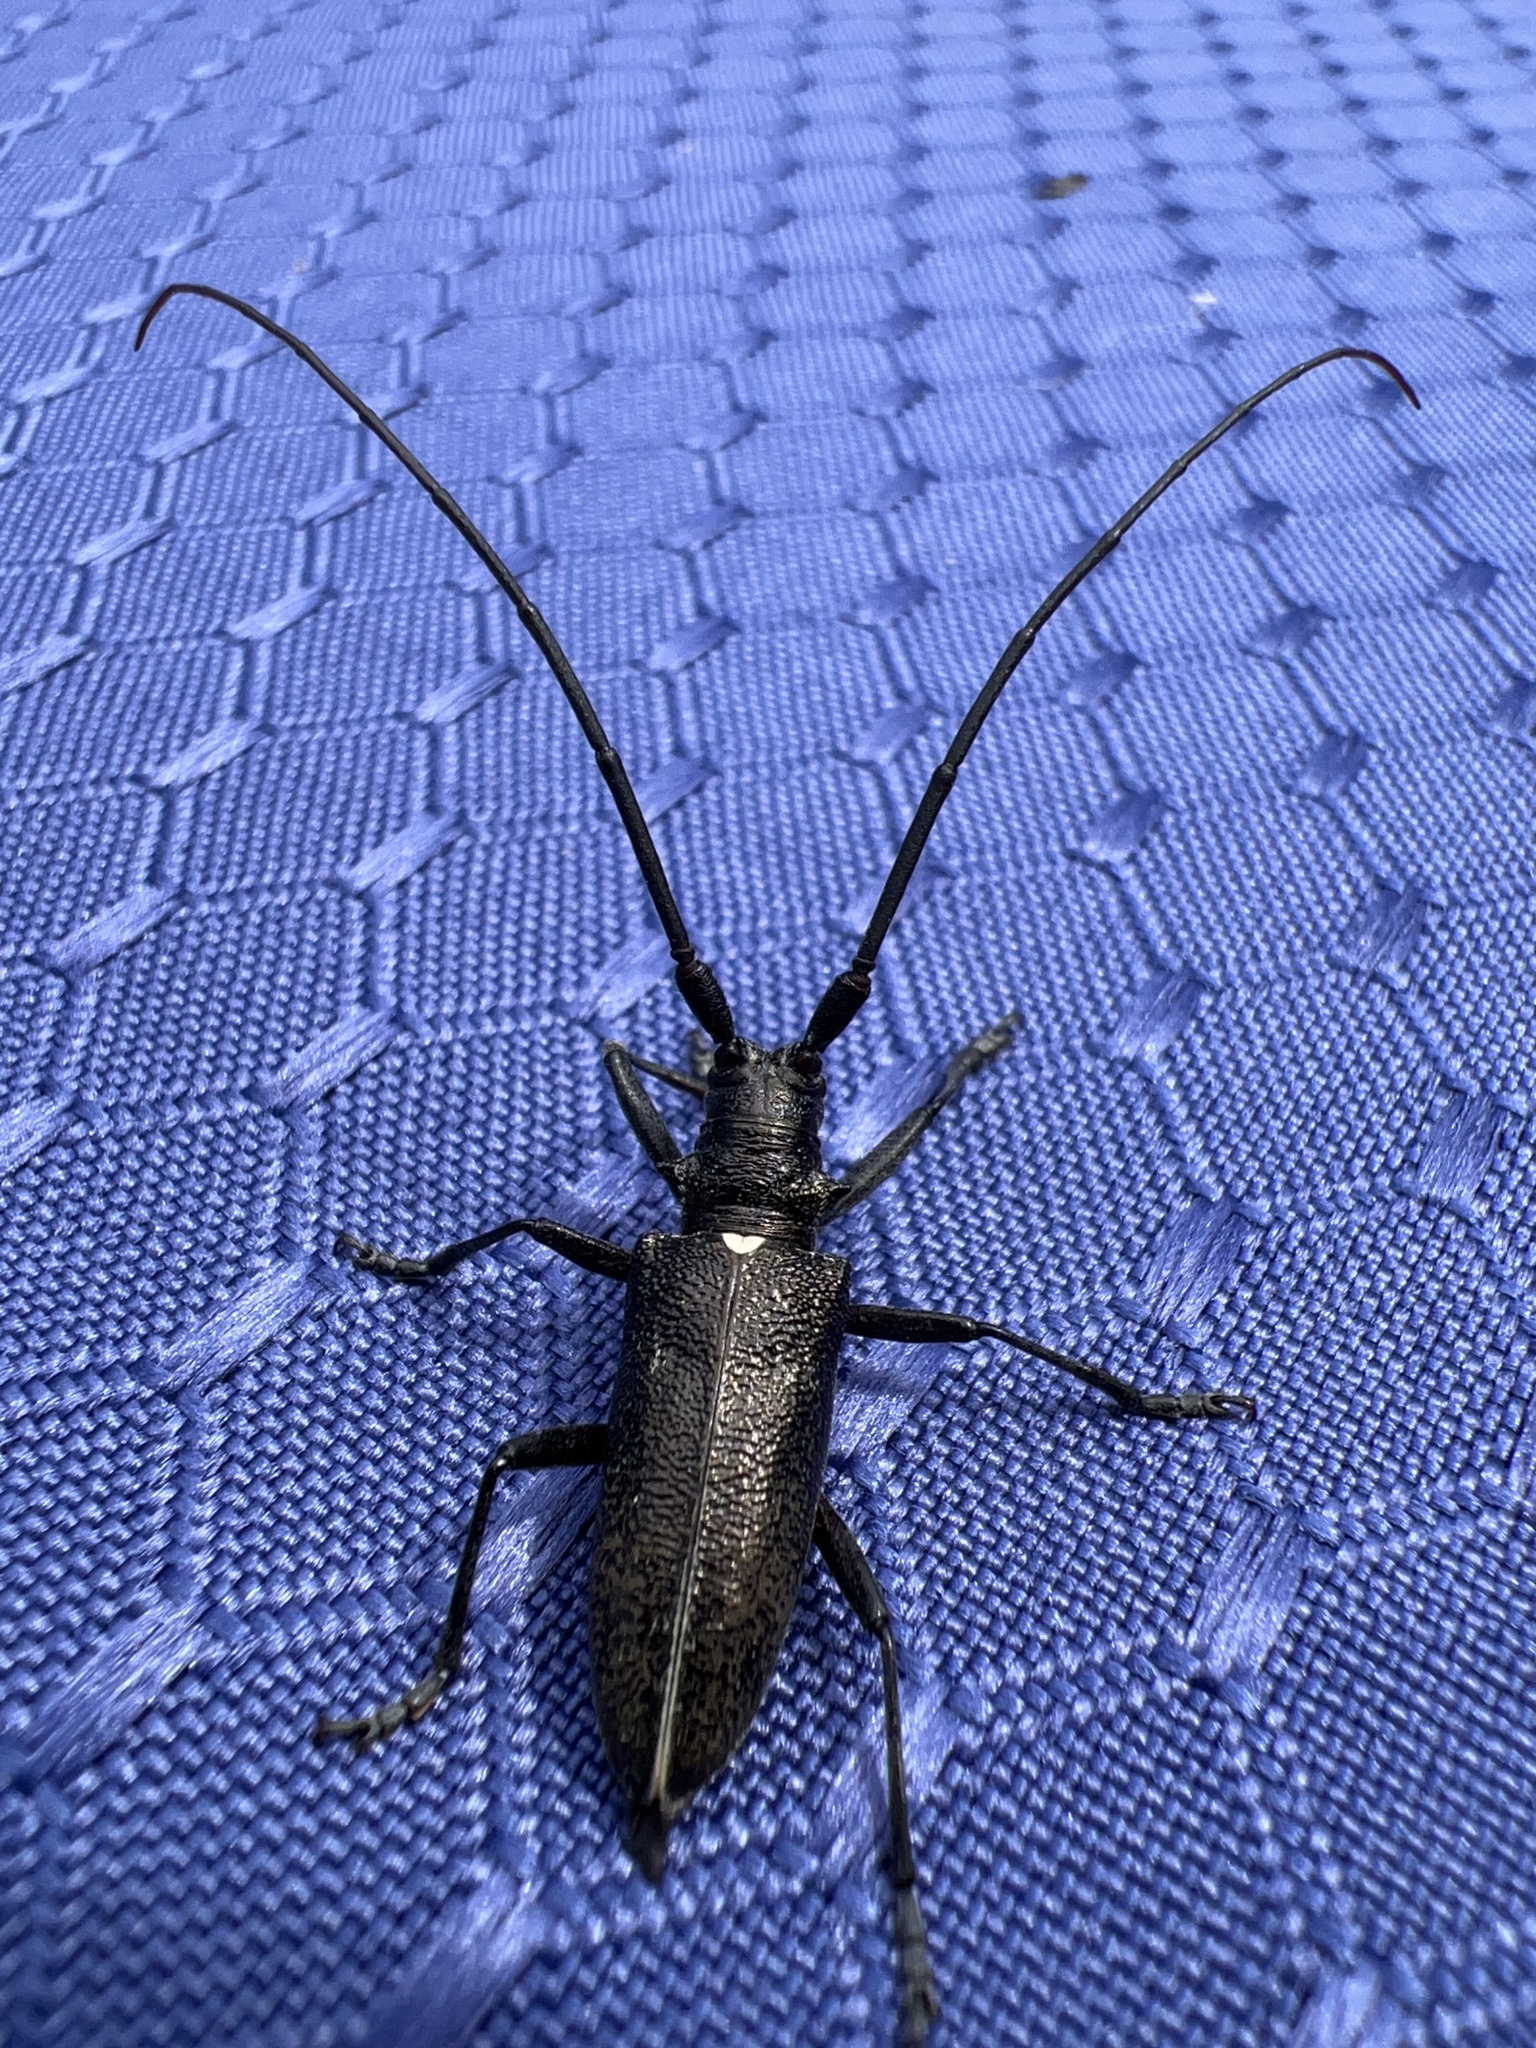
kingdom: Animalia
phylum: Arthropoda
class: Insecta
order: Coleoptera
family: Cerambycidae
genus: Monochamus
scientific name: Monochamus scutellatus
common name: White-spotted sawyer beetle
